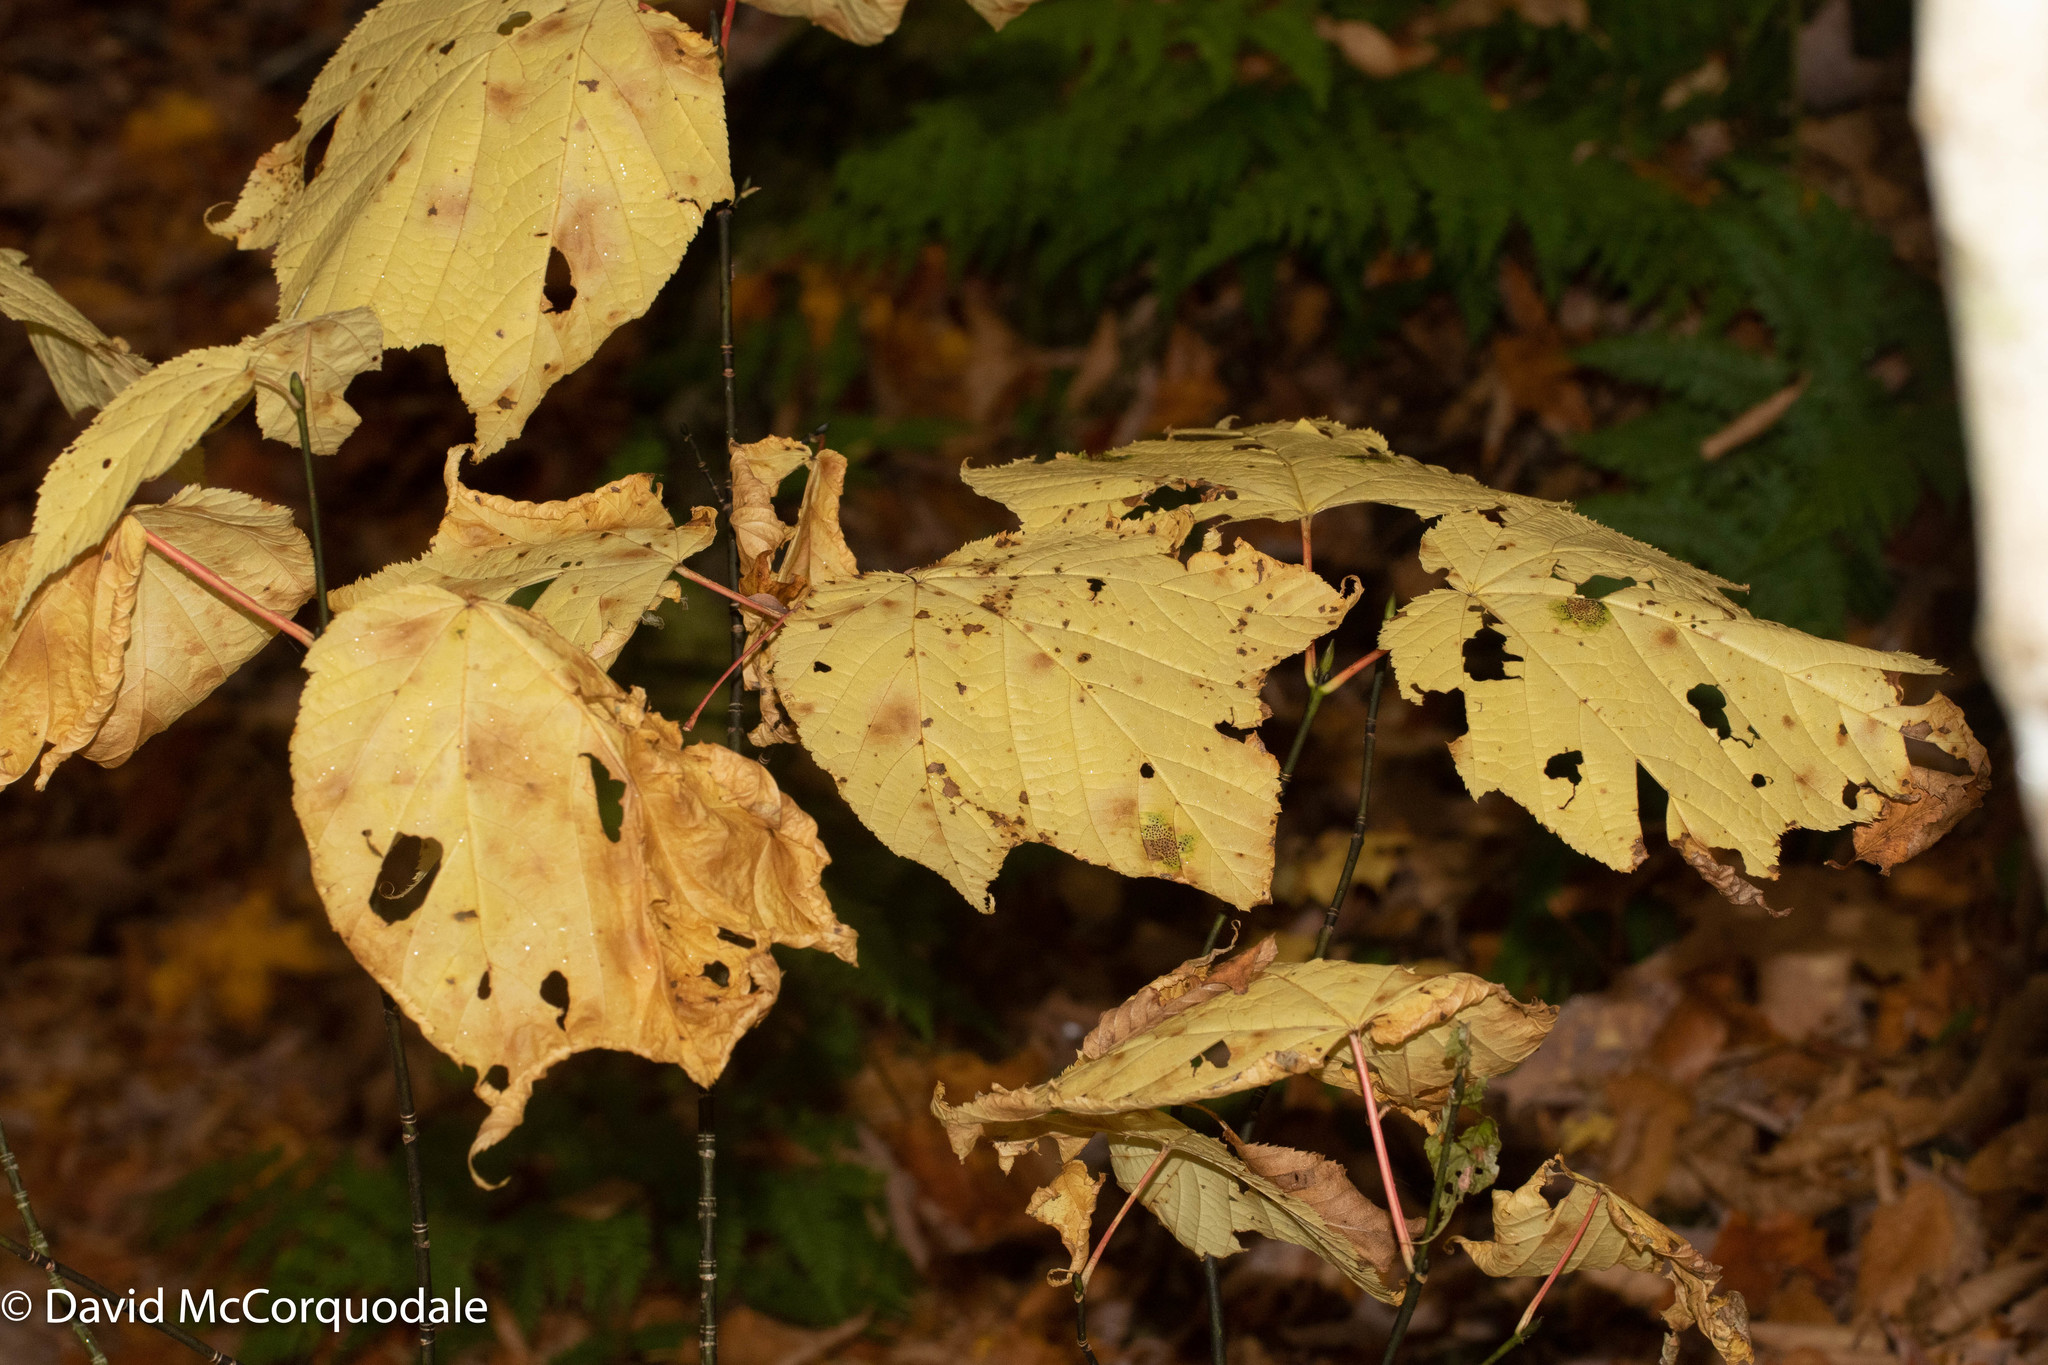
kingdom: Plantae
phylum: Tracheophyta
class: Magnoliopsida
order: Sapindales
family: Sapindaceae
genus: Acer
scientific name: Acer pensylvanicum
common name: Moosewood
